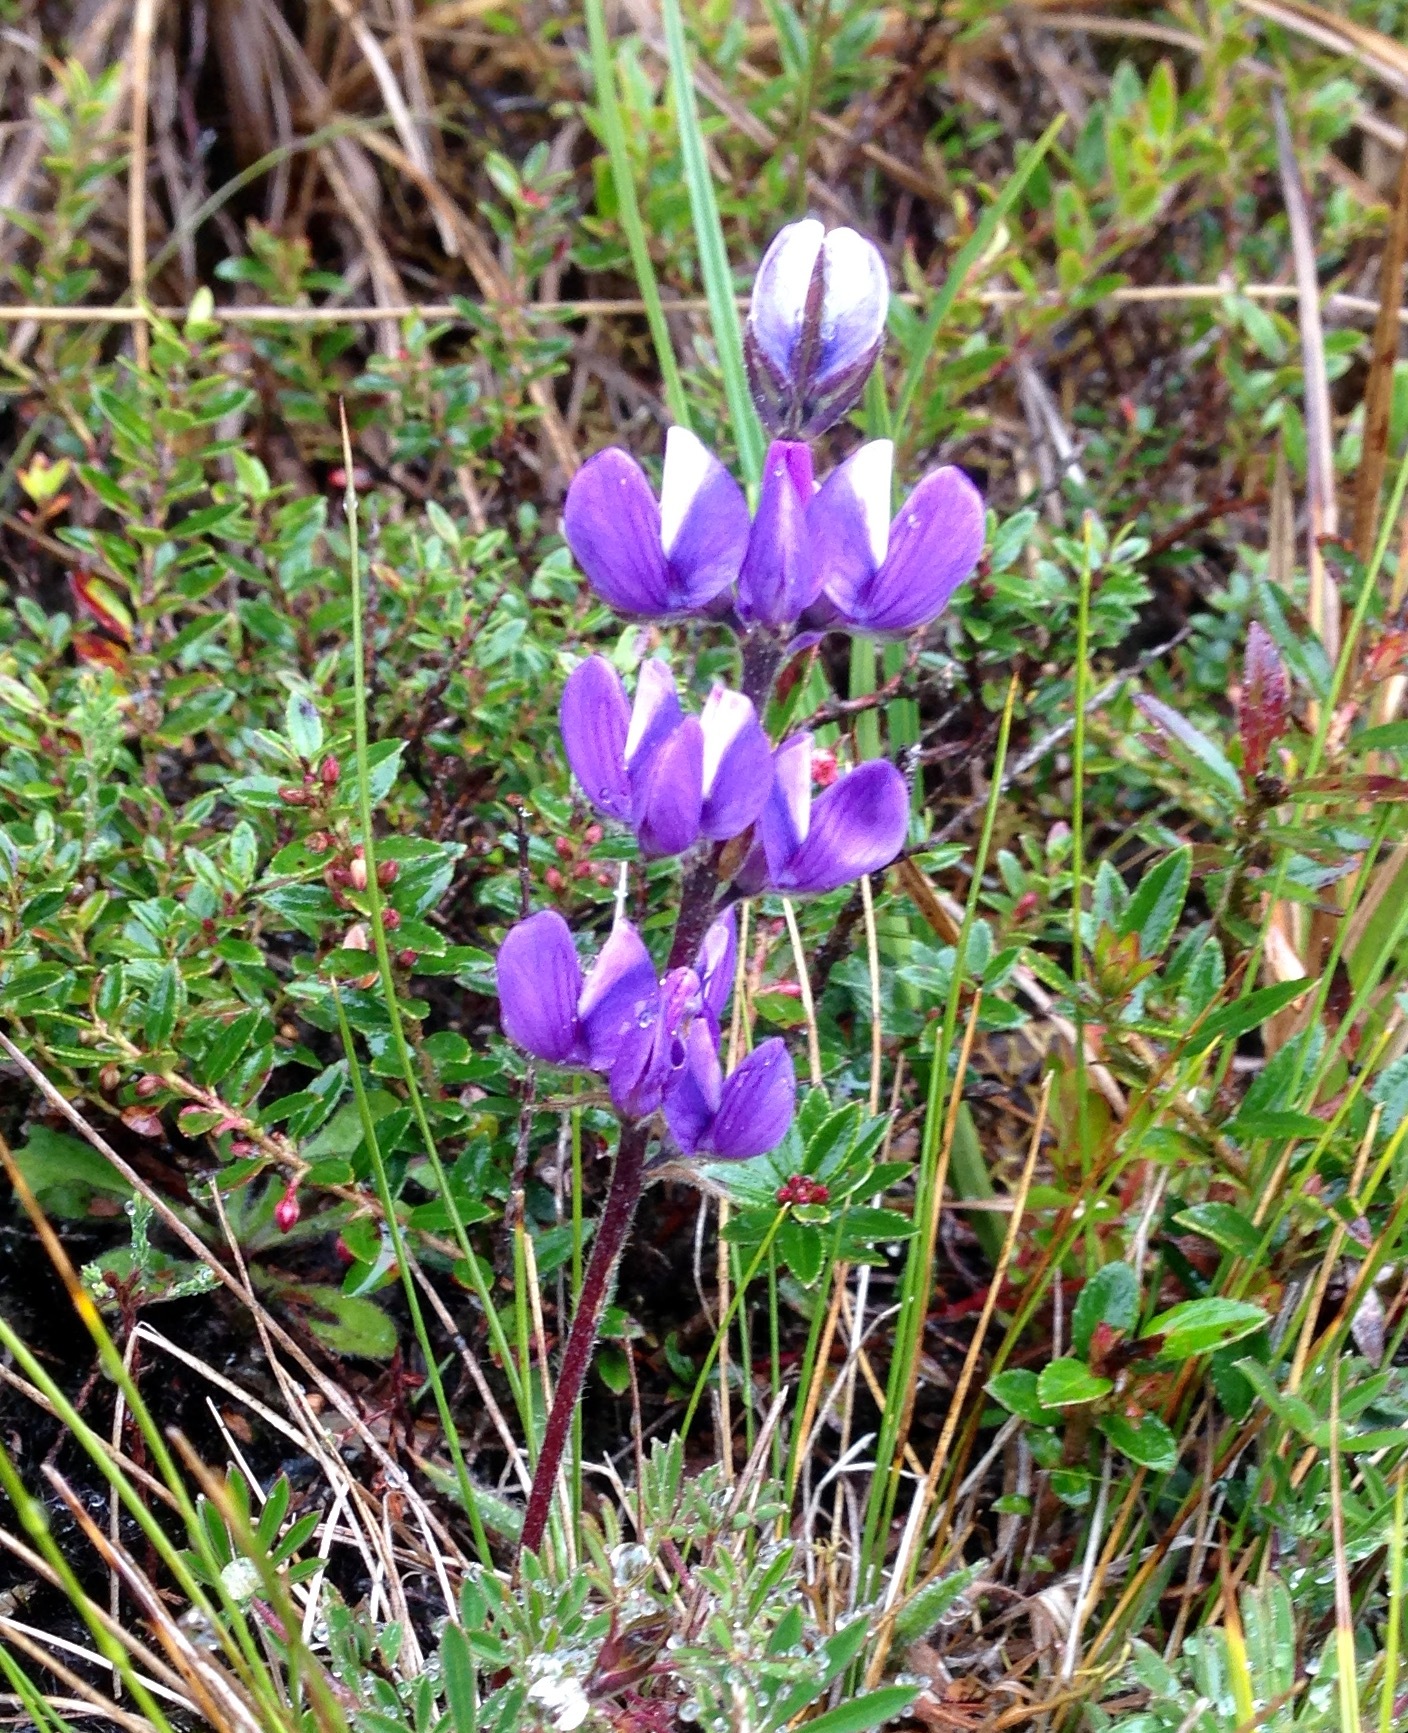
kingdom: Plantae
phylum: Tracheophyta
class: Magnoliopsida
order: Fabales
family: Fabaceae
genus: Lupinus
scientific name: Lupinus bogotensis
